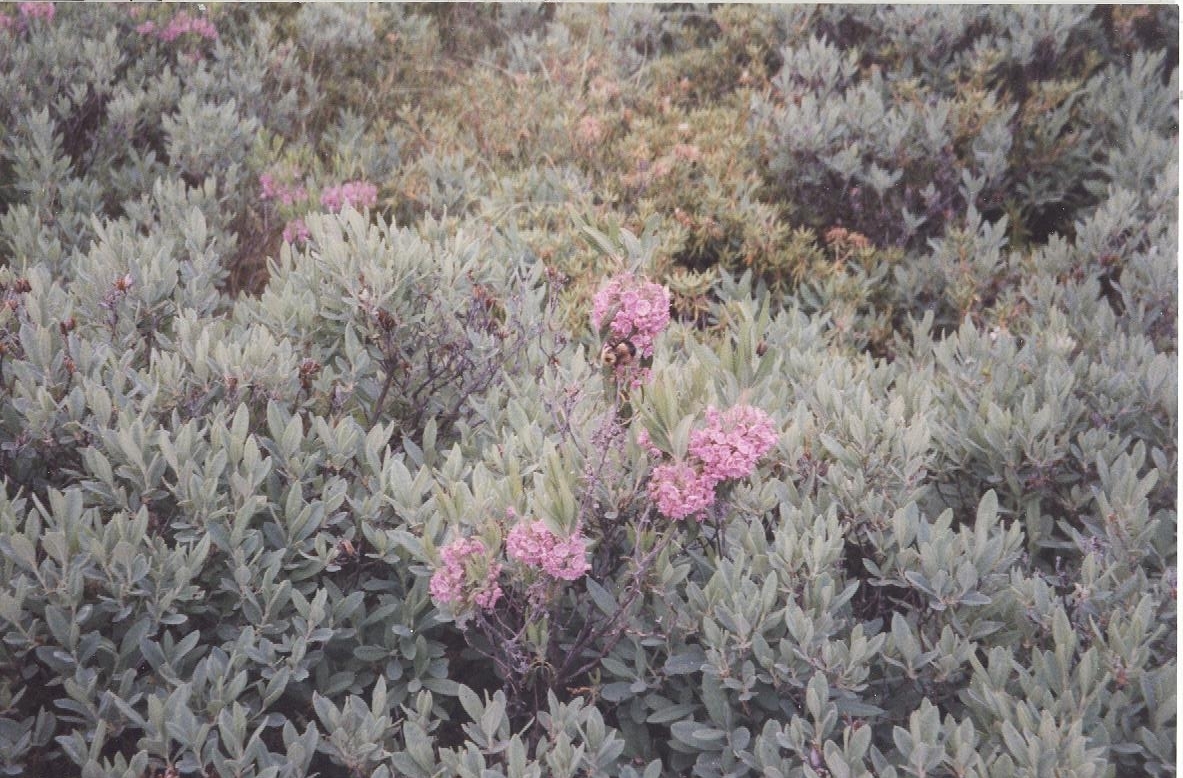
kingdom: Plantae
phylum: Tracheophyta
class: Magnoliopsida
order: Ericales
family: Ericaceae
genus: Kalmia
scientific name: Kalmia angustifolia
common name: Sheep-laurel
